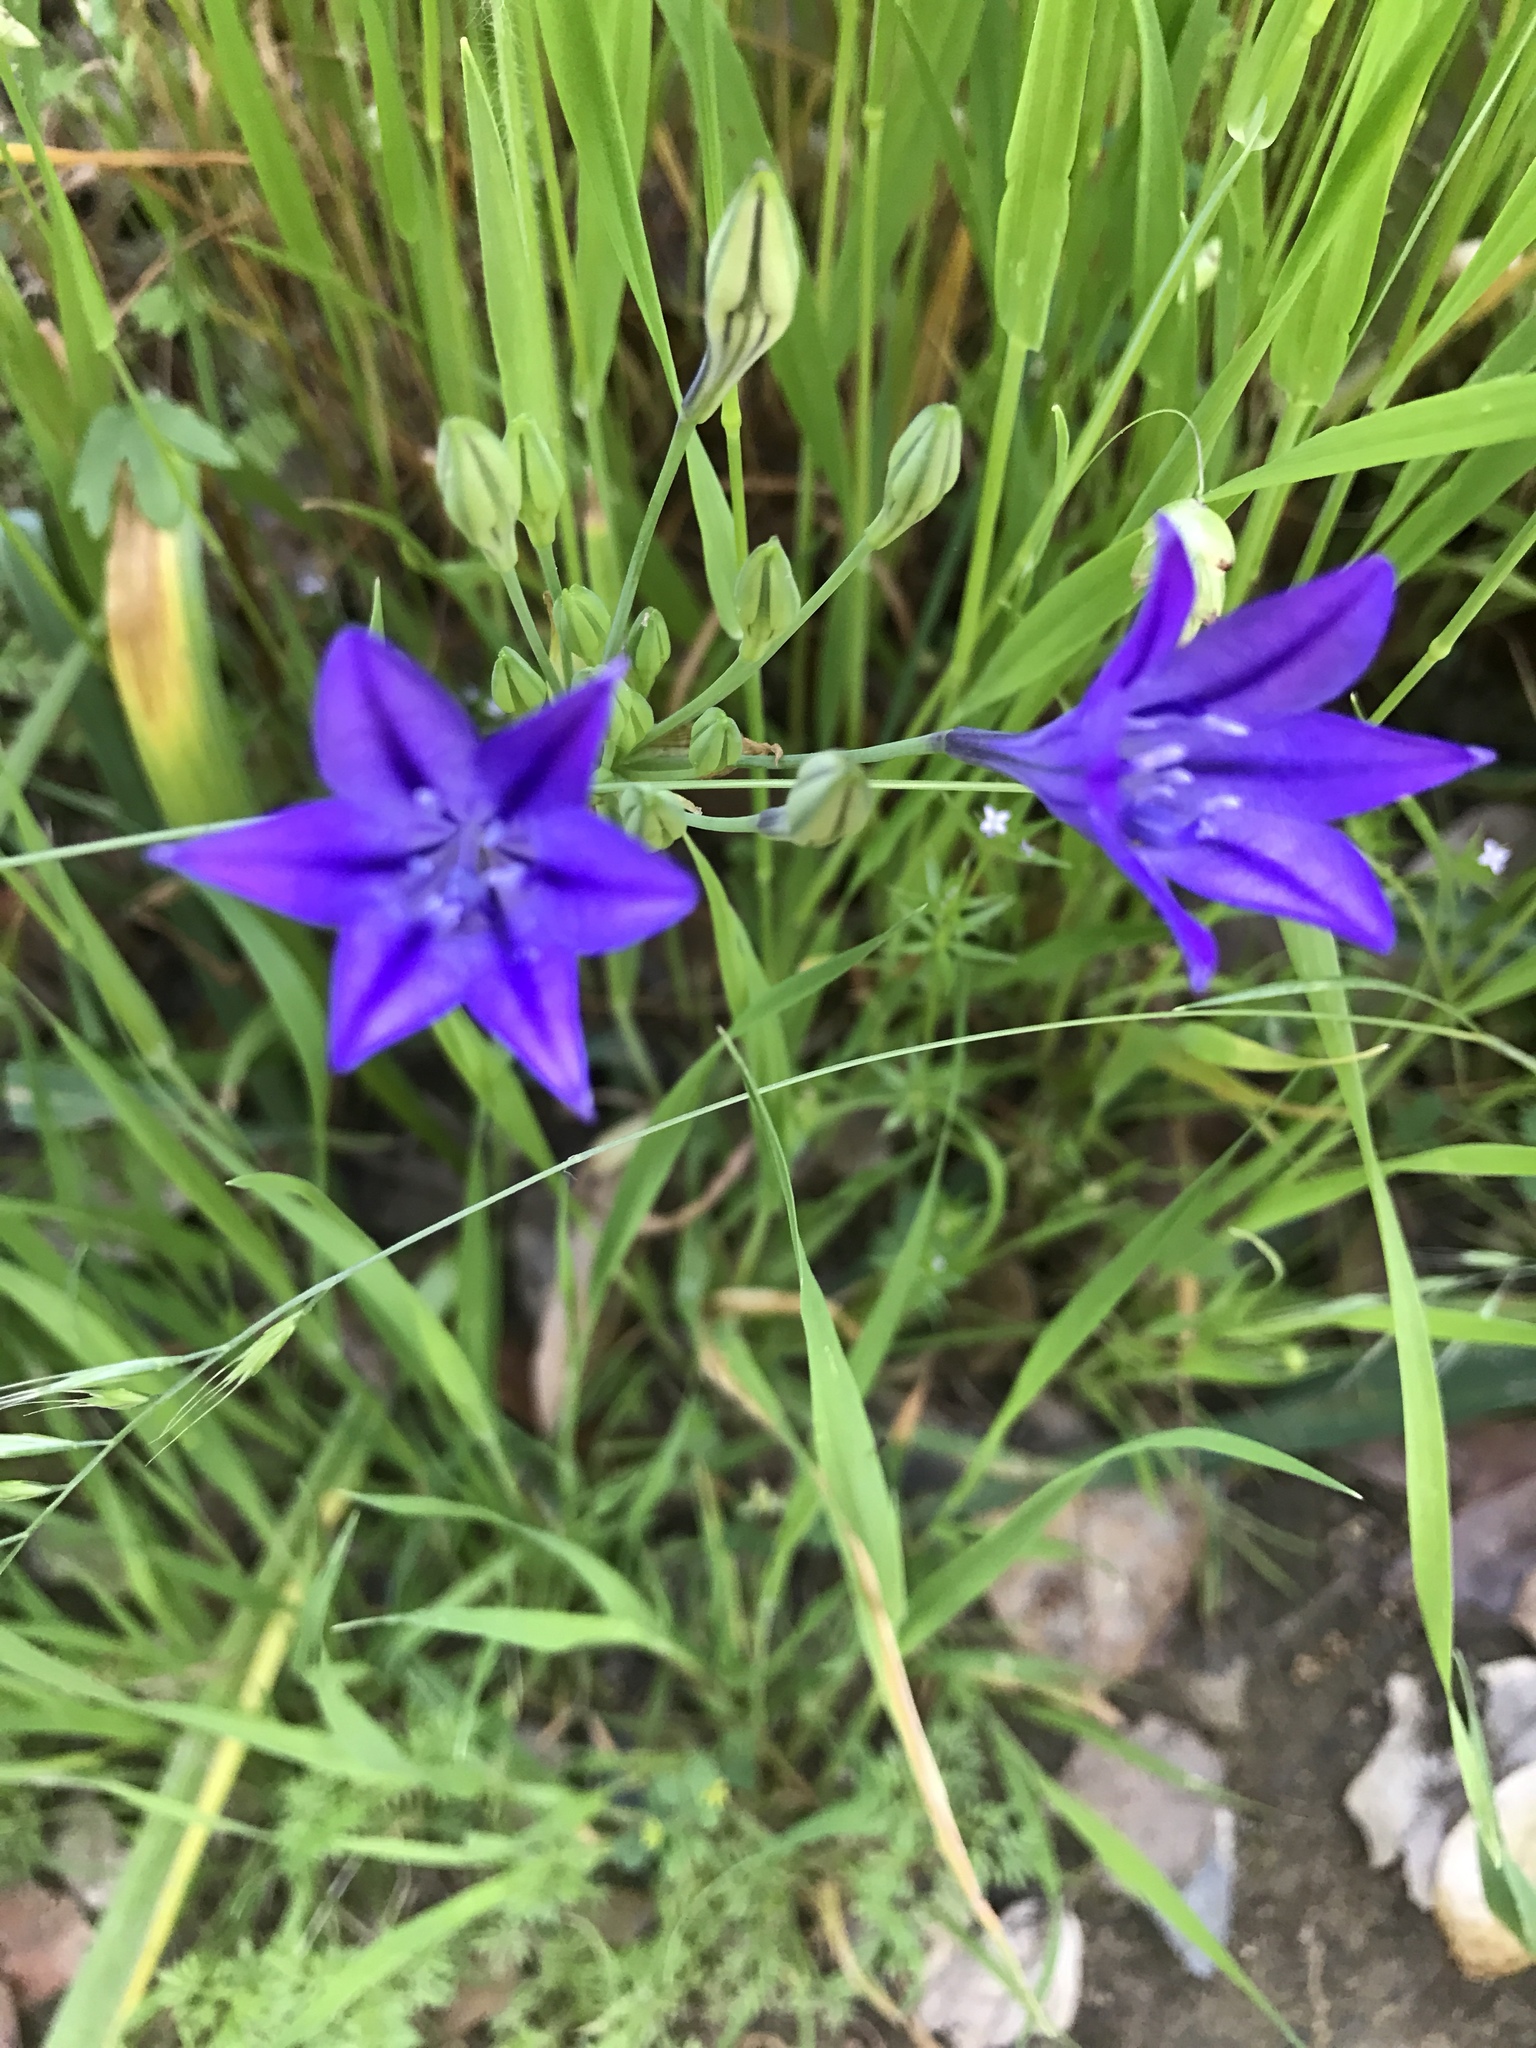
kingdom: Plantae
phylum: Tracheophyta
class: Liliopsida
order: Asparagales
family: Asparagaceae
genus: Triteleia
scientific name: Triteleia laxa
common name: Triplet-lily
